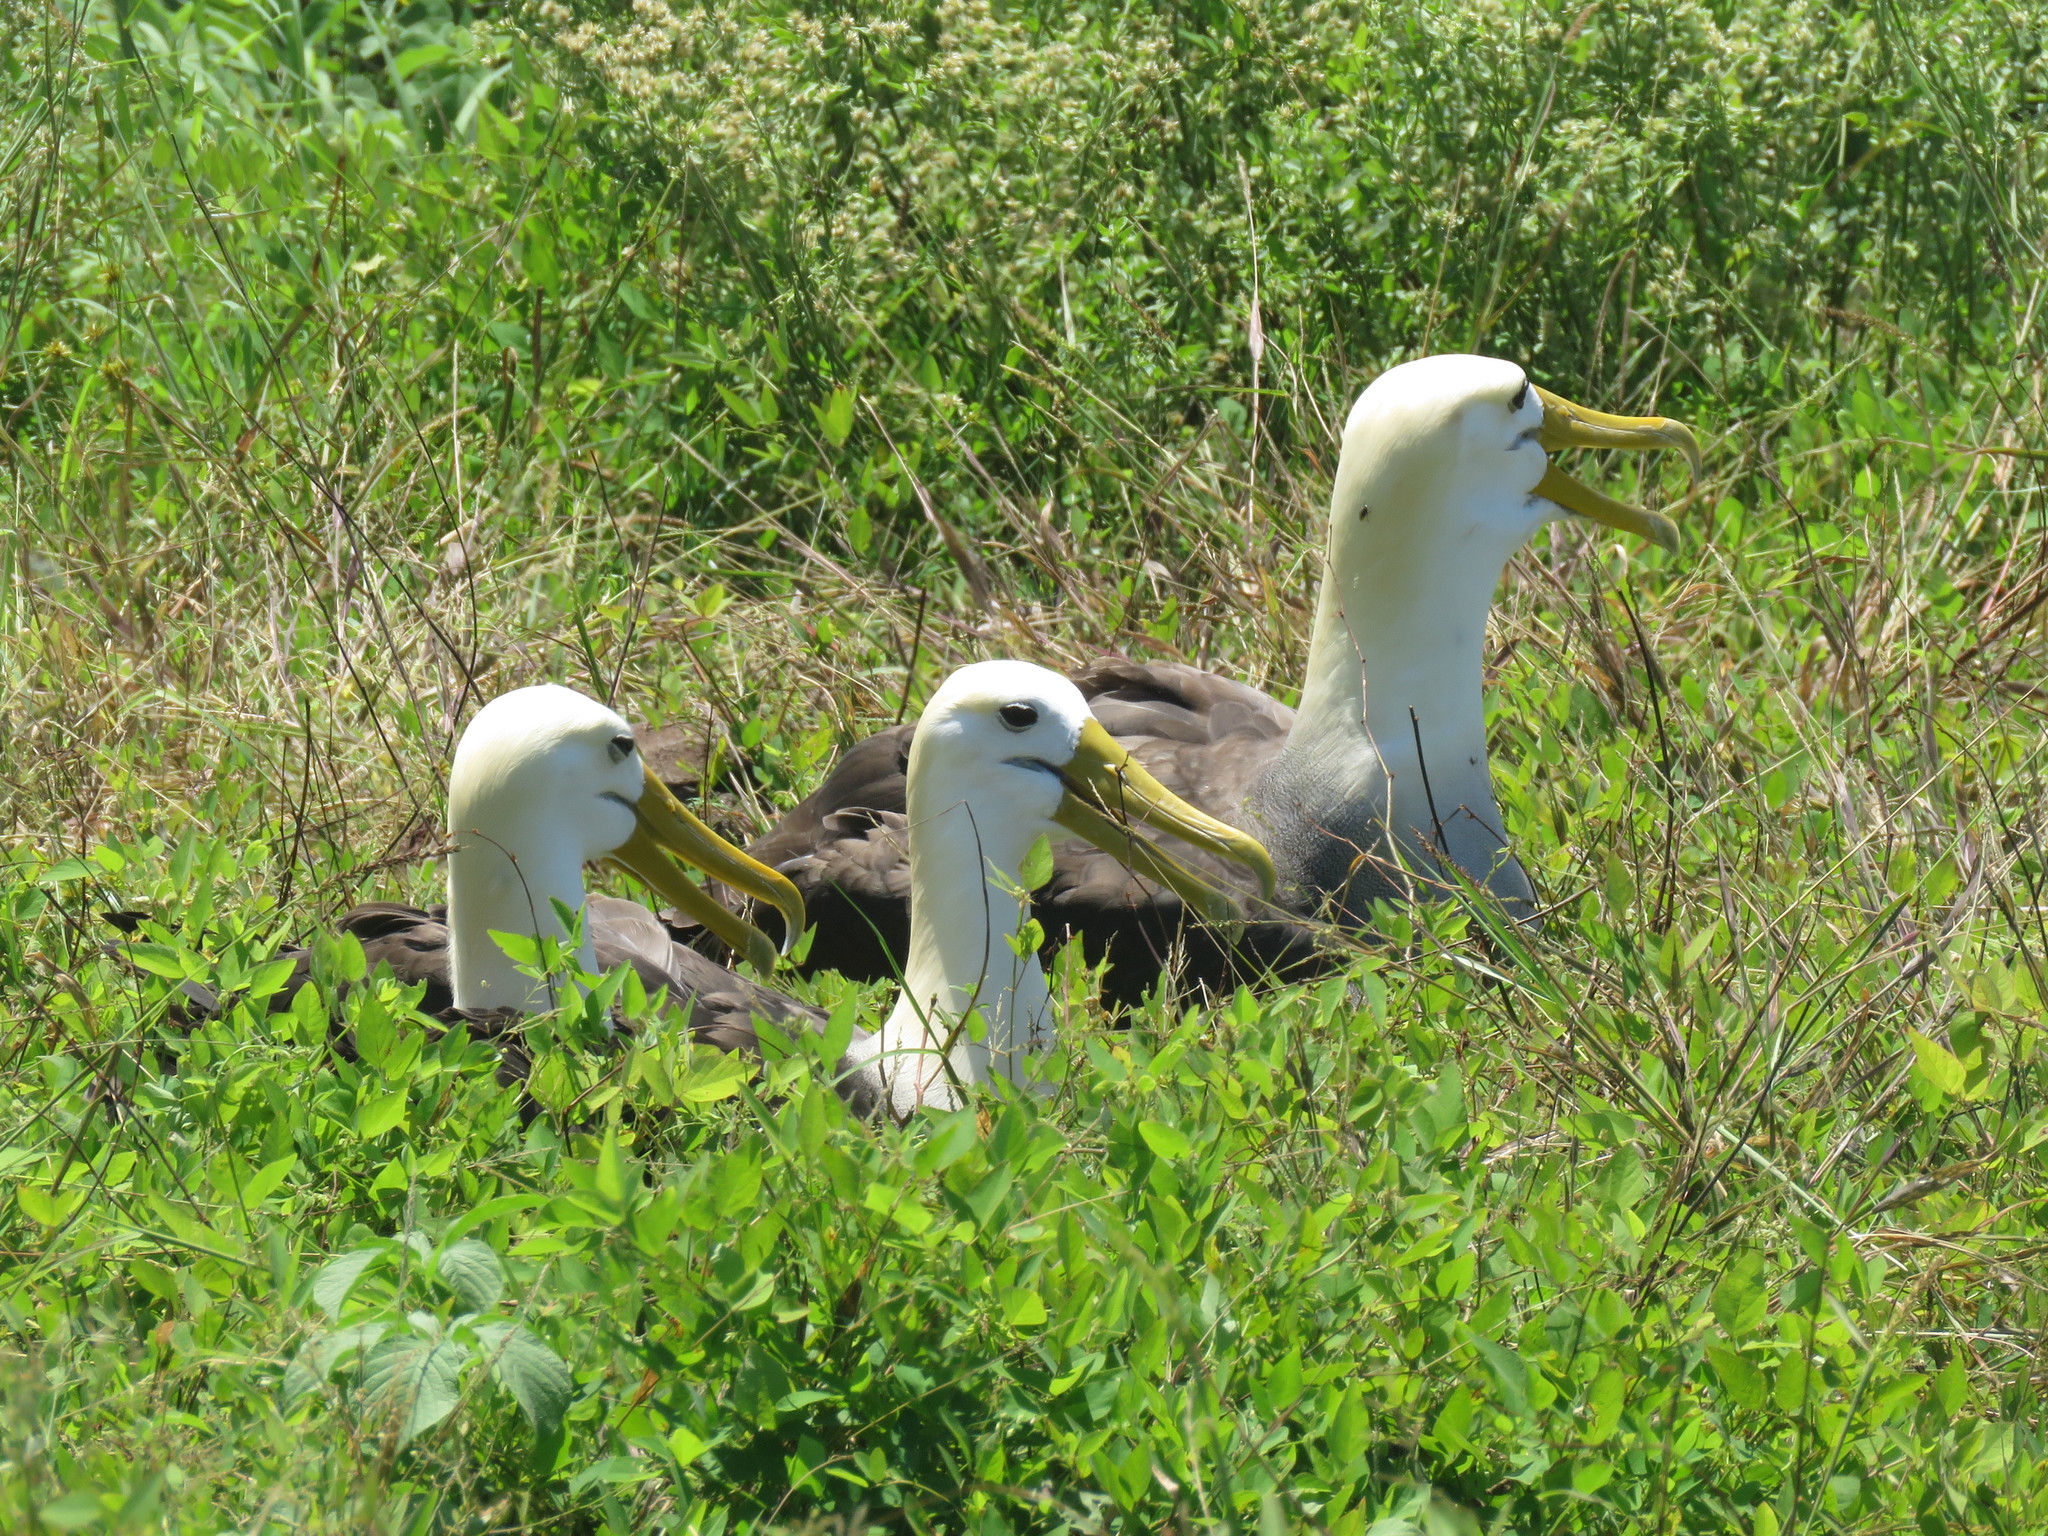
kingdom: Animalia
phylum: Chordata
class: Aves
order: Procellariiformes
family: Diomedeidae
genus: Phoebastria
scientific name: Phoebastria irrorata
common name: Waved albatross
